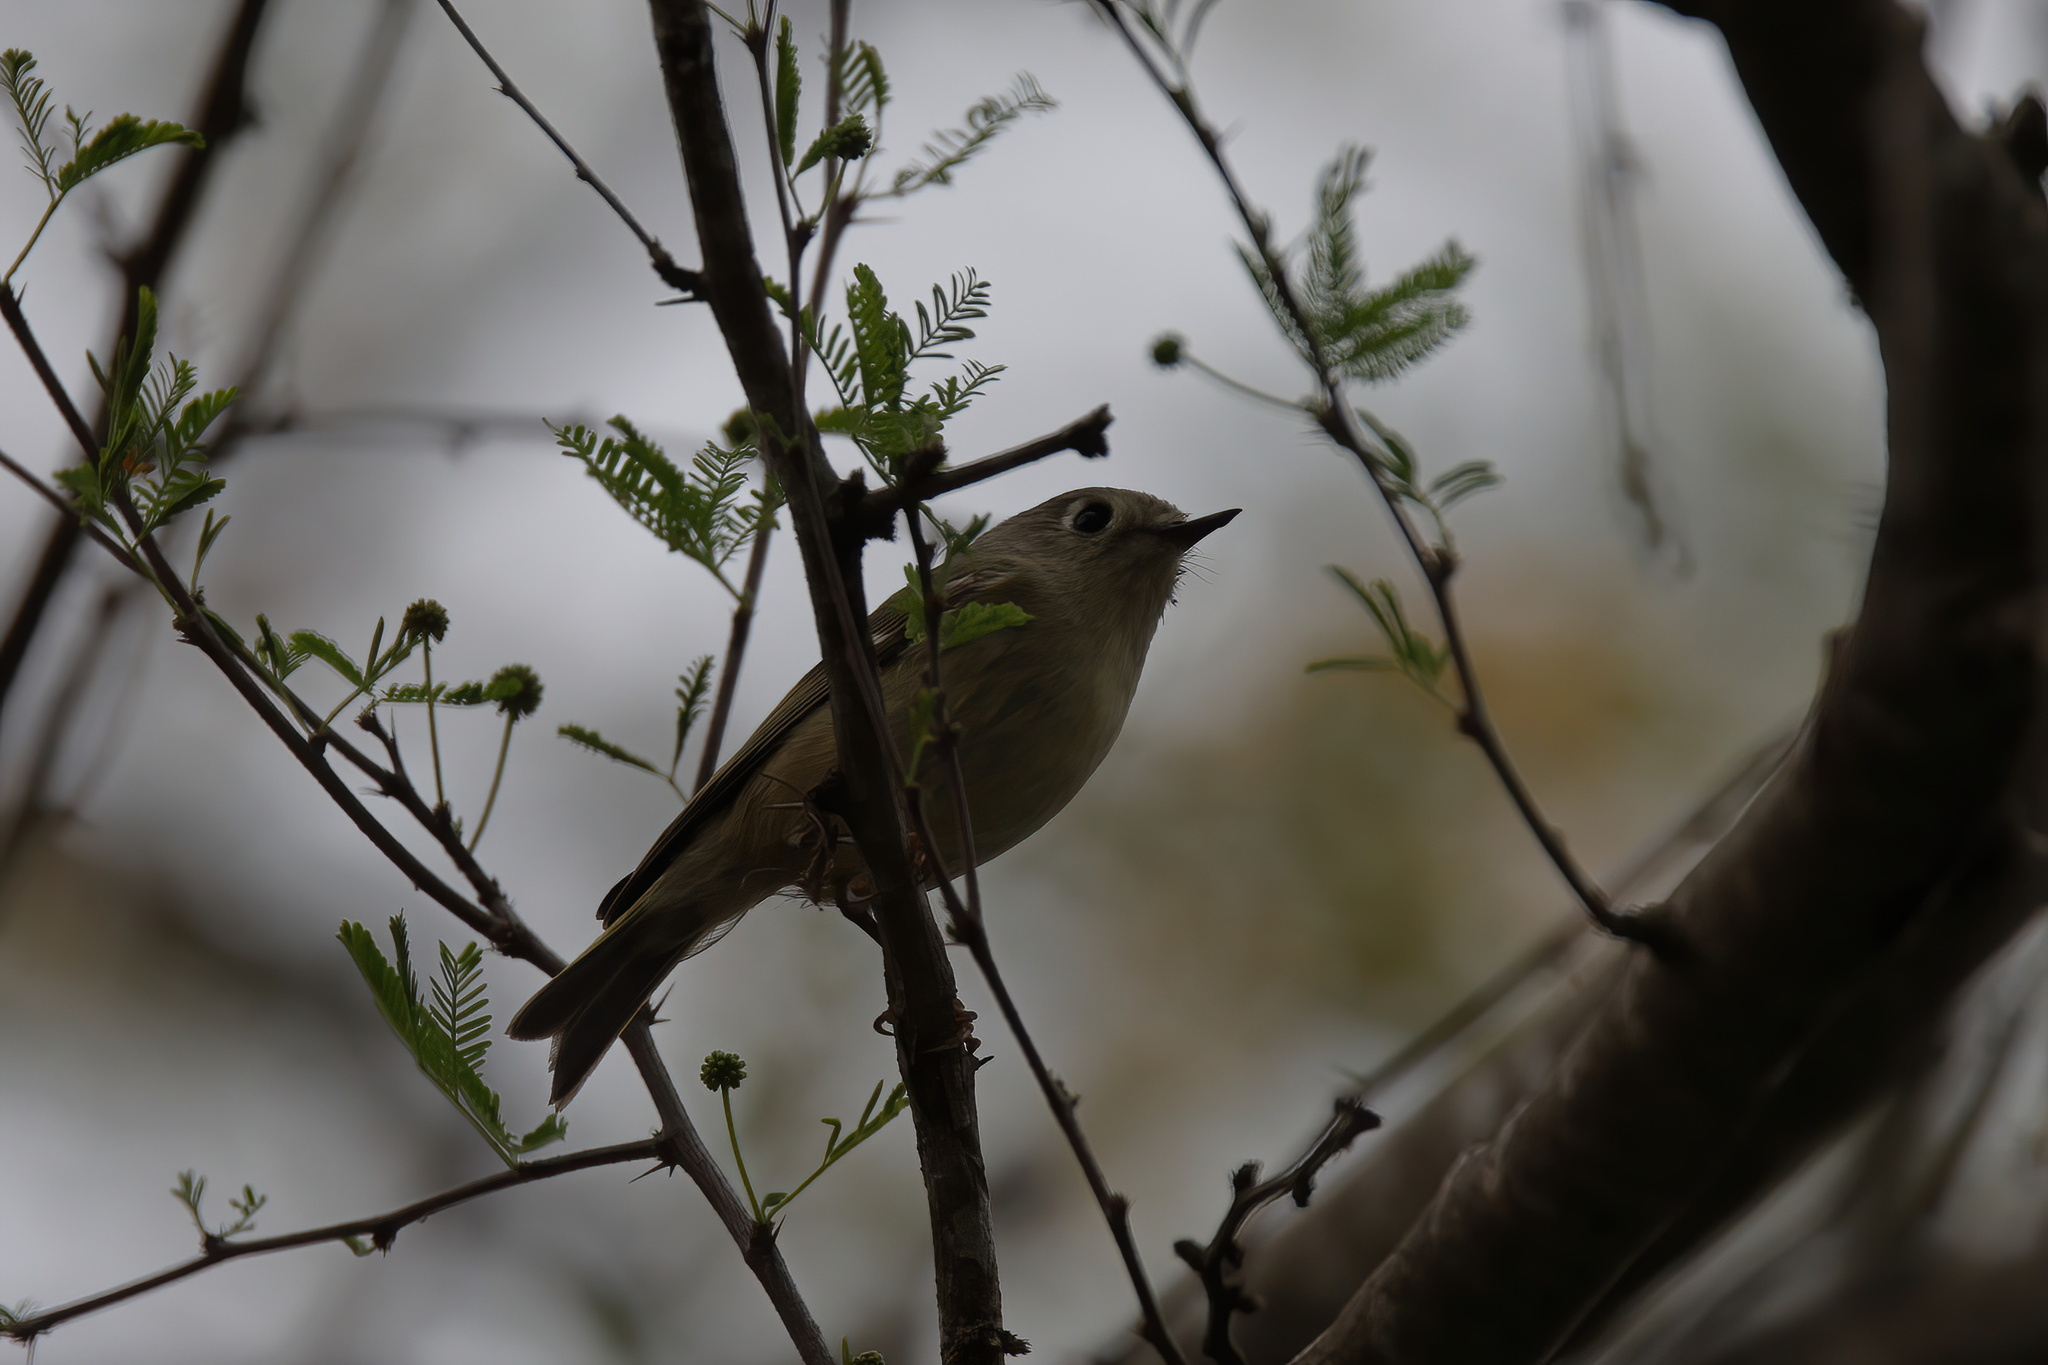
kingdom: Animalia
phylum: Chordata
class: Aves
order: Passeriformes
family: Regulidae
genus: Regulus
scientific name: Regulus calendula
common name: Ruby-crowned kinglet
